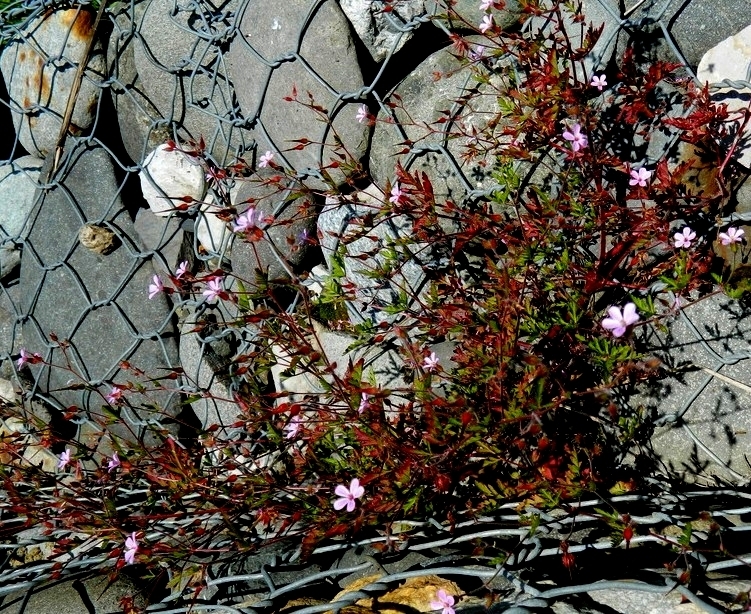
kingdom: Plantae
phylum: Tracheophyta
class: Magnoliopsida
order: Geraniales
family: Geraniaceae
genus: Geranium
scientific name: Geranium robertianum
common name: Herb-robert
